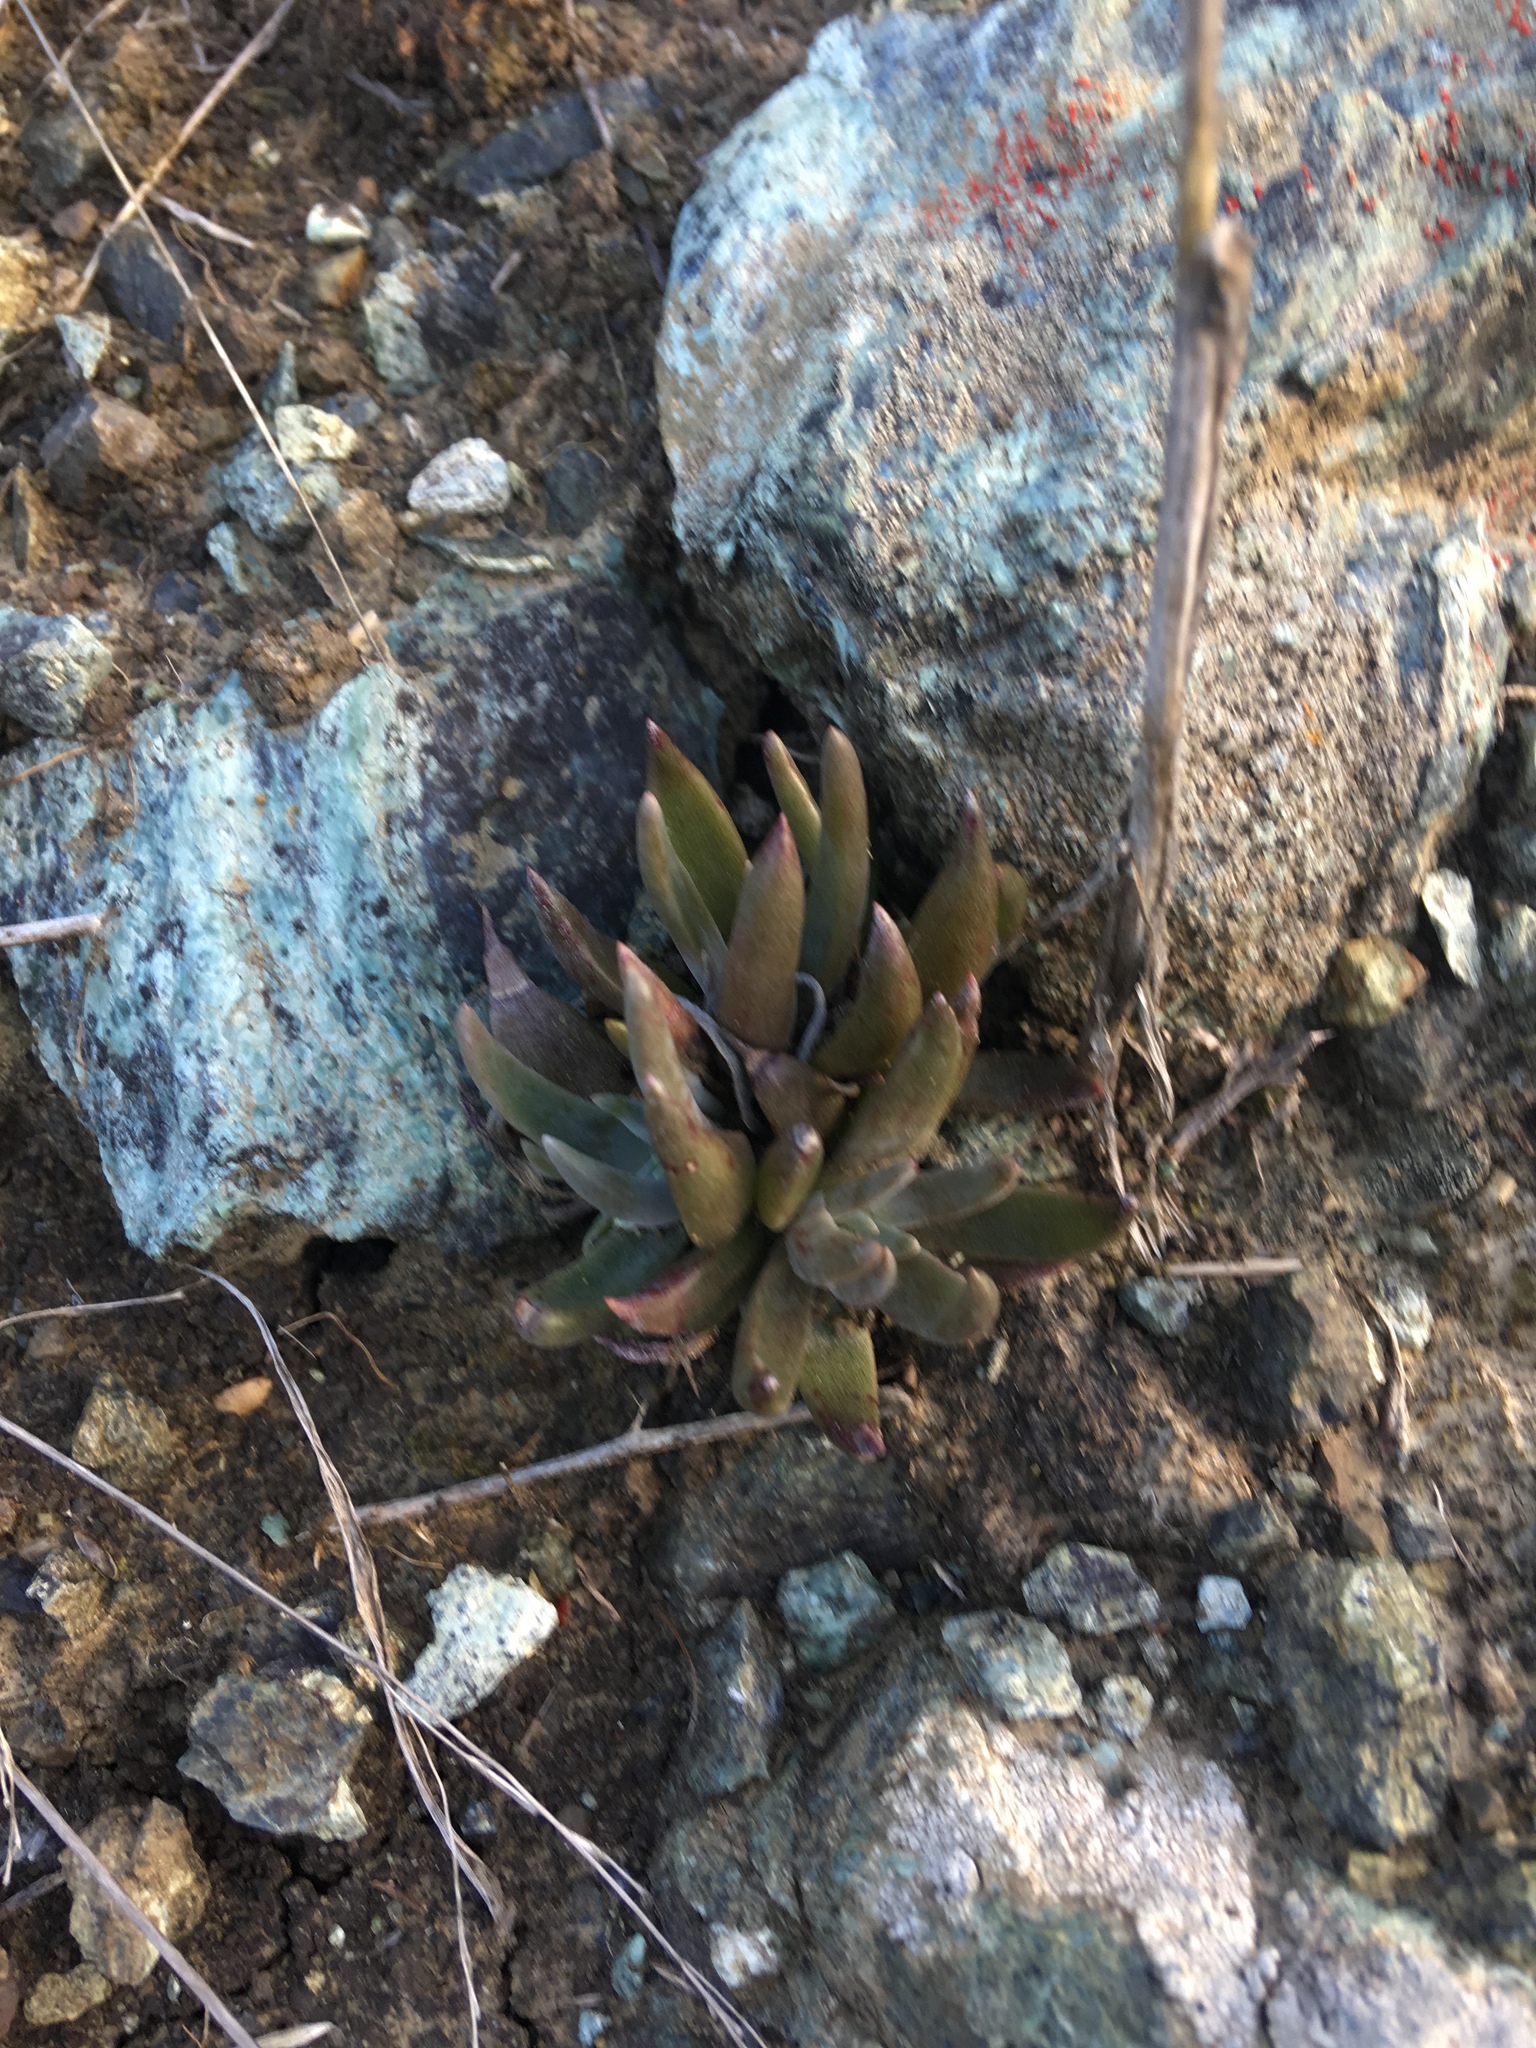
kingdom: Plantae
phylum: Tracheophyta
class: Magnoliopsida
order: Saxifragales
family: Crassulaceae
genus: Dudleya
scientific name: Dudleya abramsii
